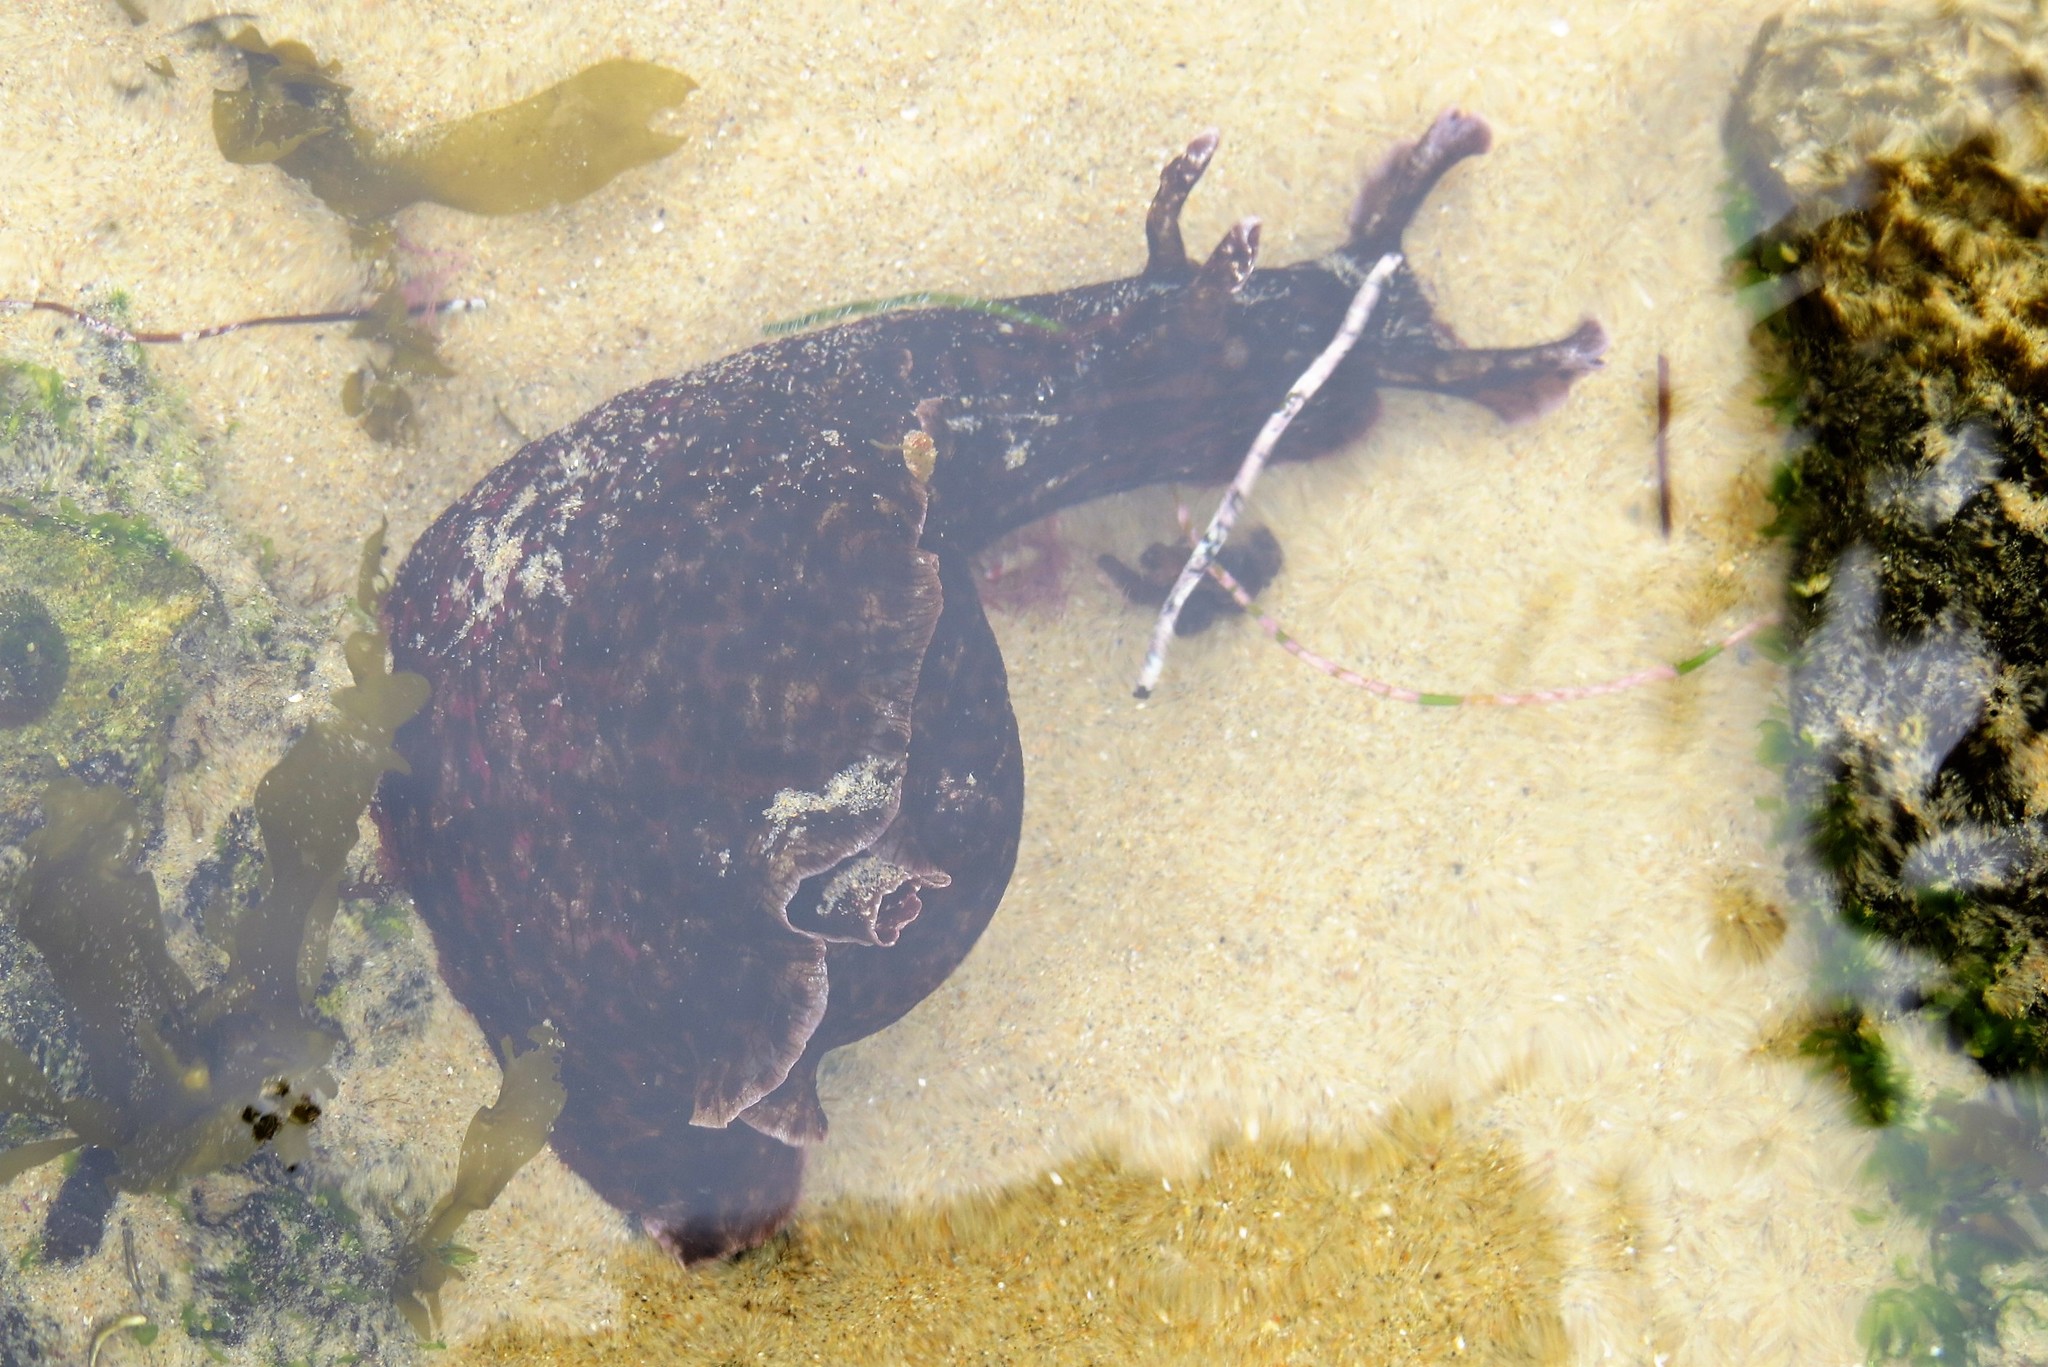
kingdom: Animalia
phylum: Mollusca
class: Gastropoda
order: Aplysiida
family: Aplysiidae
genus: Aplysia
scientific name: Aplysia californica
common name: California seahare
